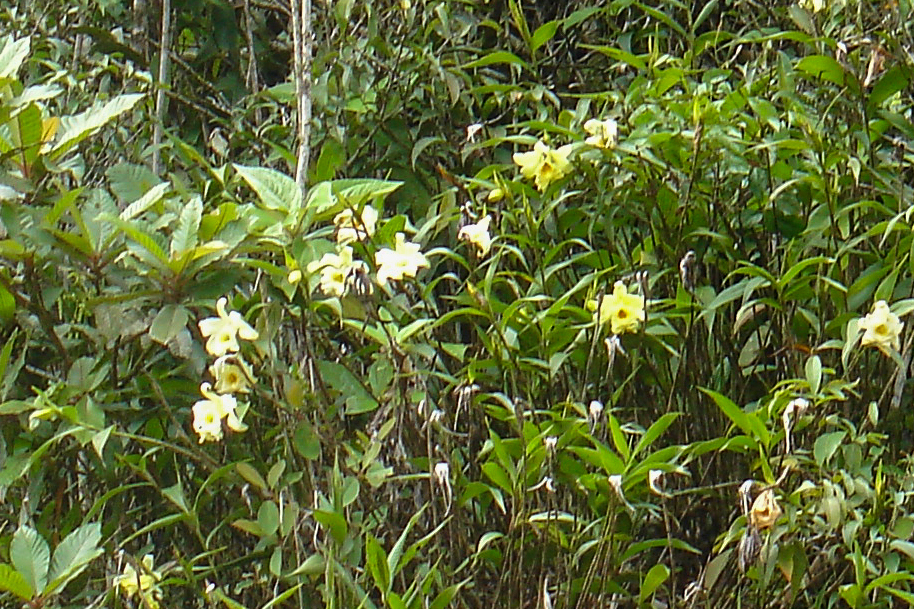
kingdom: Plantae
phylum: Tracheophyta
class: Liliopsida
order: Asparagales
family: Orchidaceae
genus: Sobralia
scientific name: Sobralia xantholeuca
